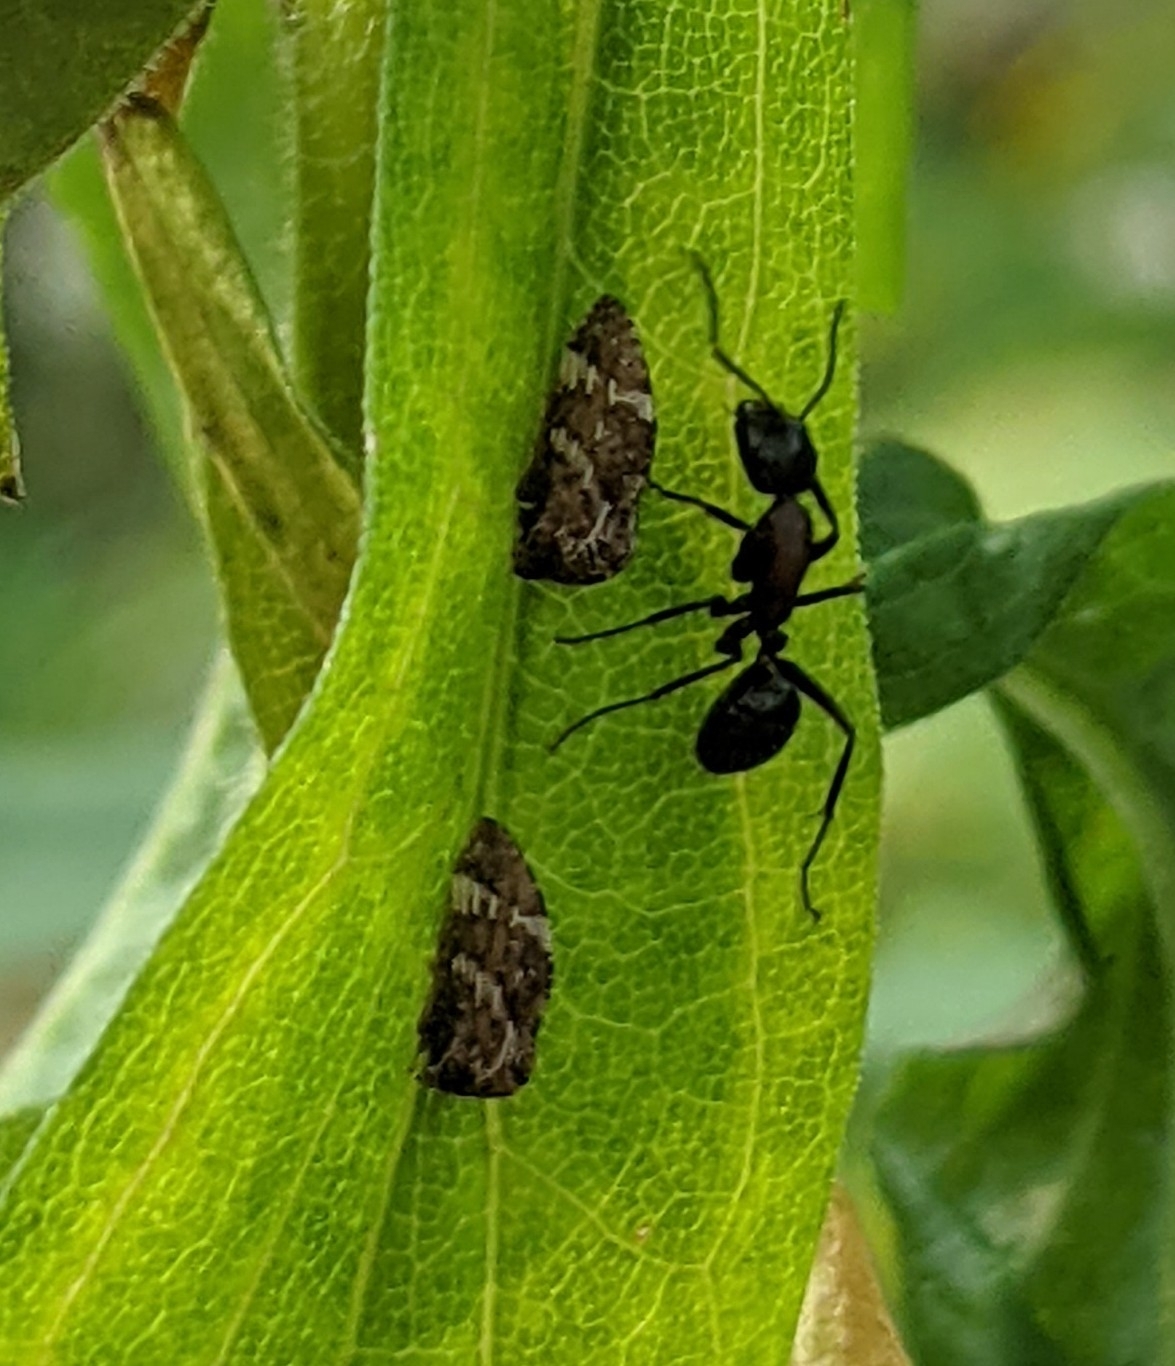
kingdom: Animalia
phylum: Arthropoda
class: Insecta
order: Hemiptera
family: Membracidae
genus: Publilia
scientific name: Publilia concava
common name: Aster treehopper
